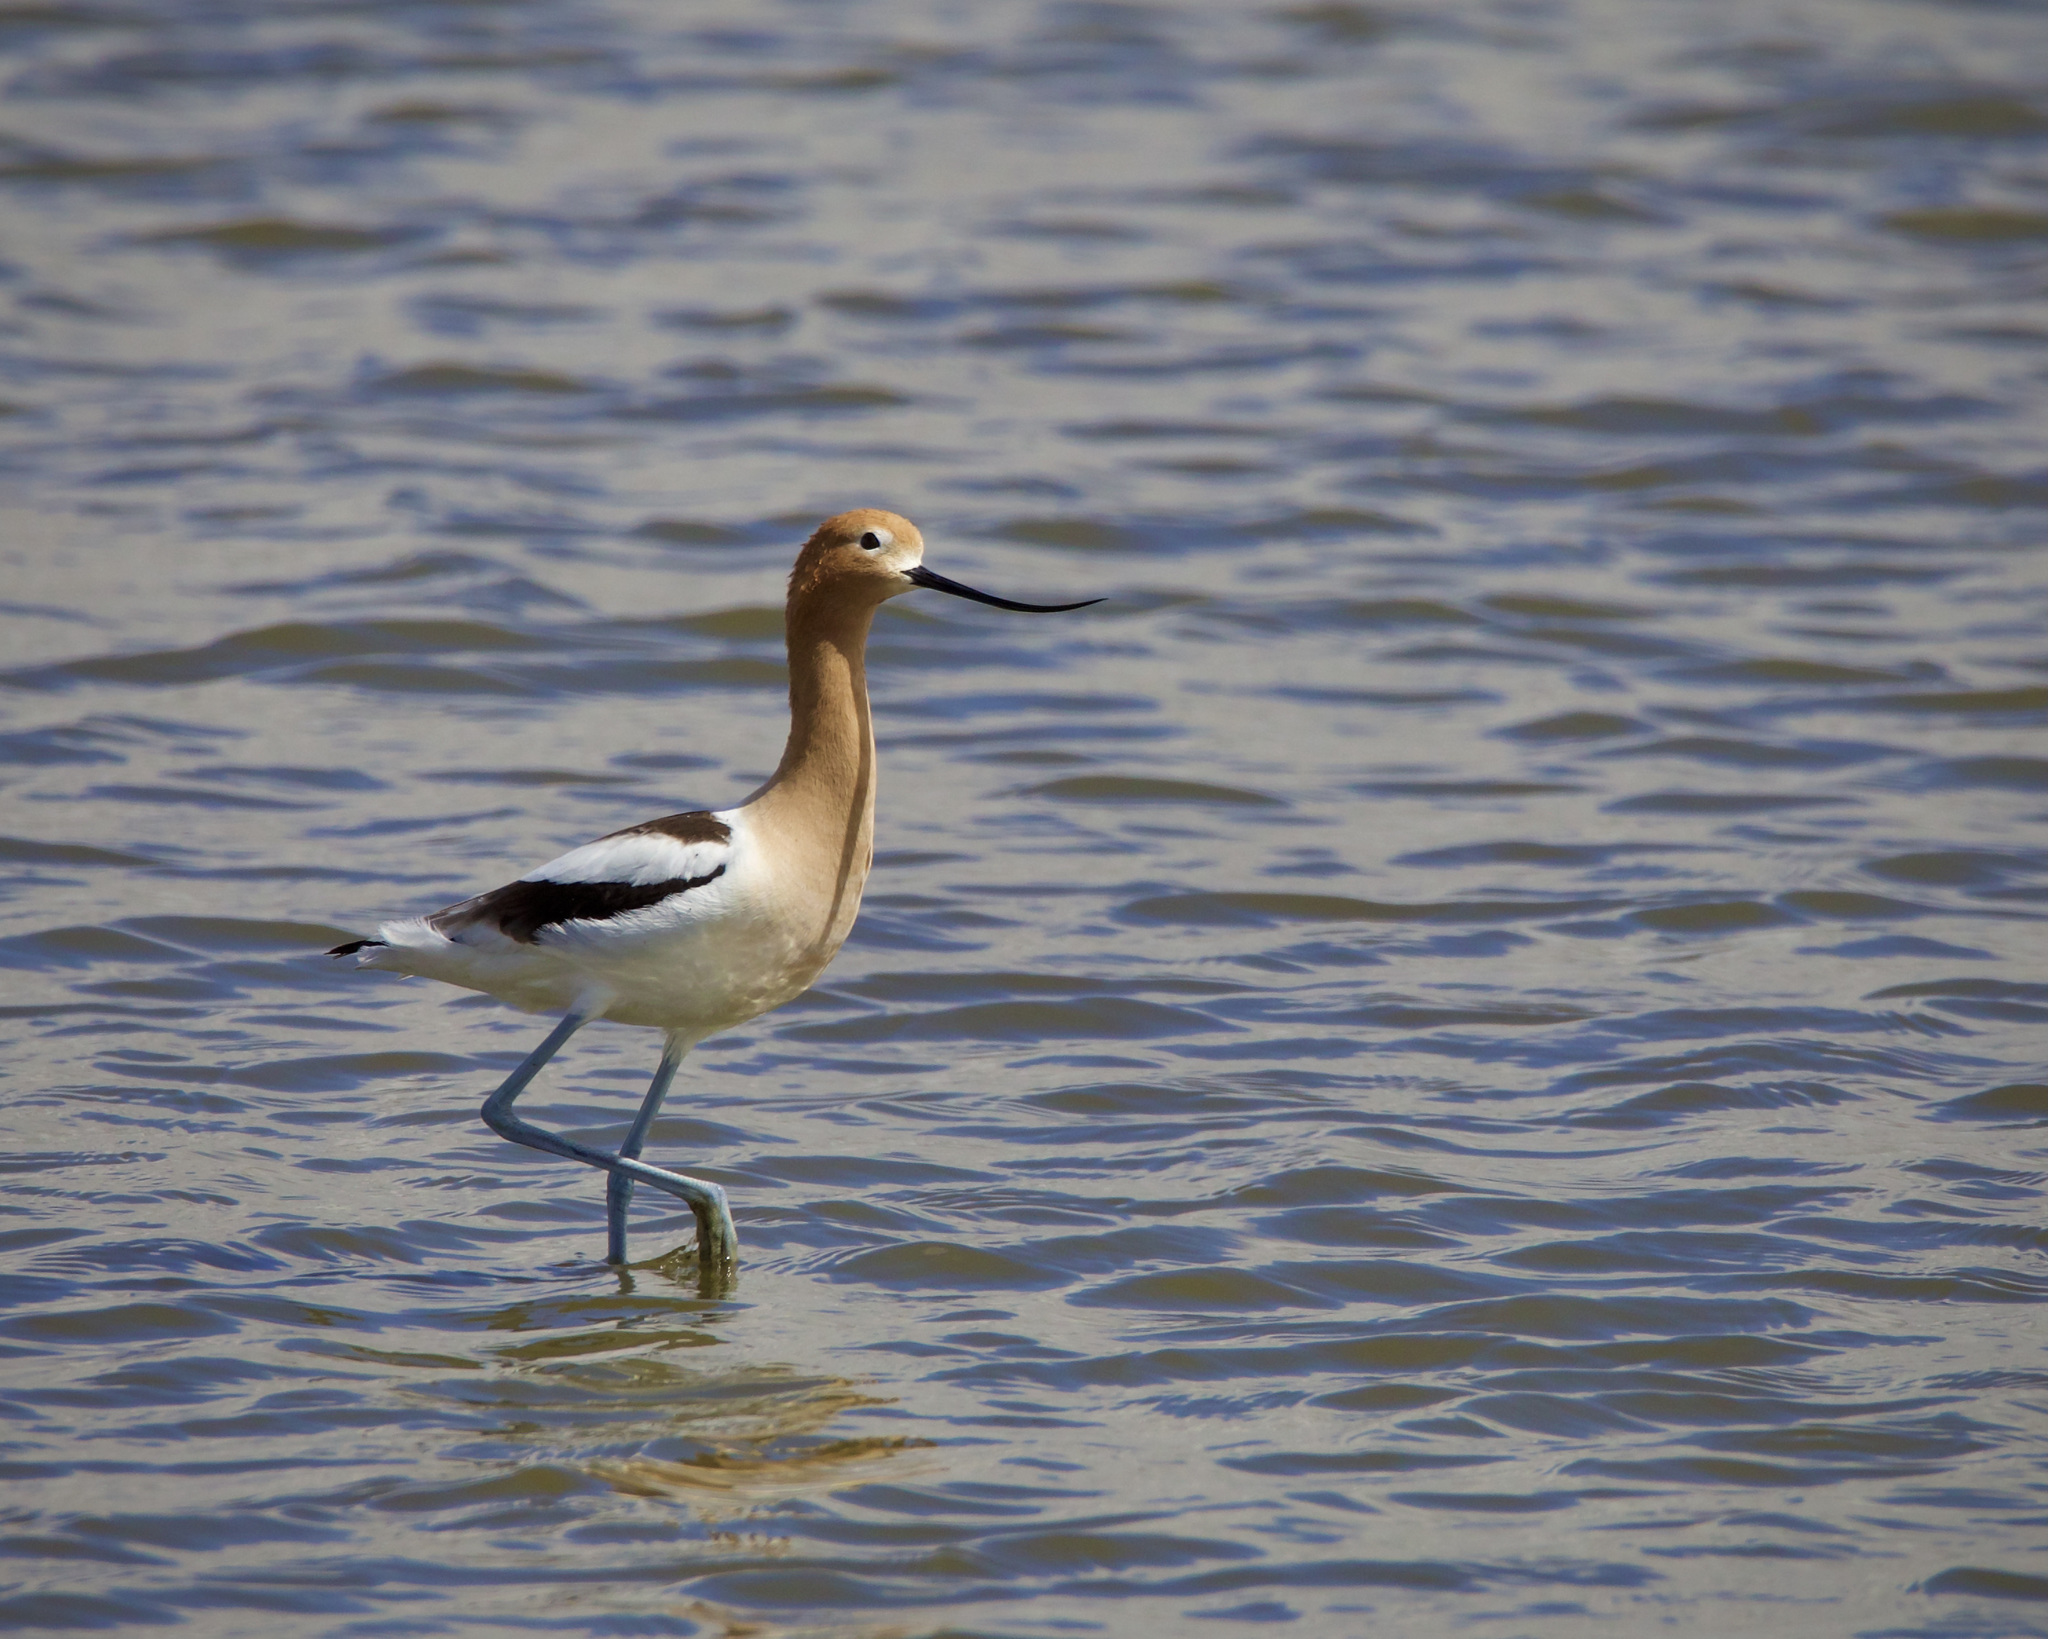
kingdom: Animalia
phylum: Chordata
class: Aves
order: Charadriiformes
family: Recurvirostridae
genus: Recurvirostra
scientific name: Recurvirostra americana
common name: American avocet
